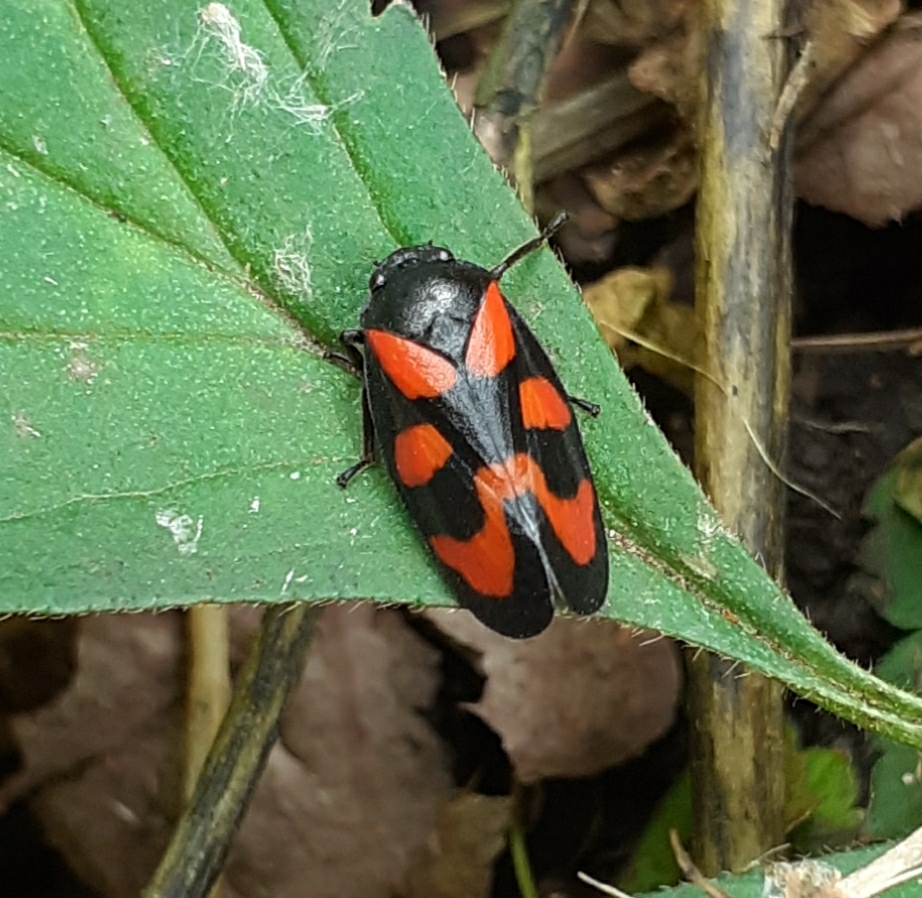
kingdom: Animalia
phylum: Arthropoda
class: Insecta
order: Hemiptera
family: Cercopidae
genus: Cercopis
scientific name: Cercopis vulnerata
